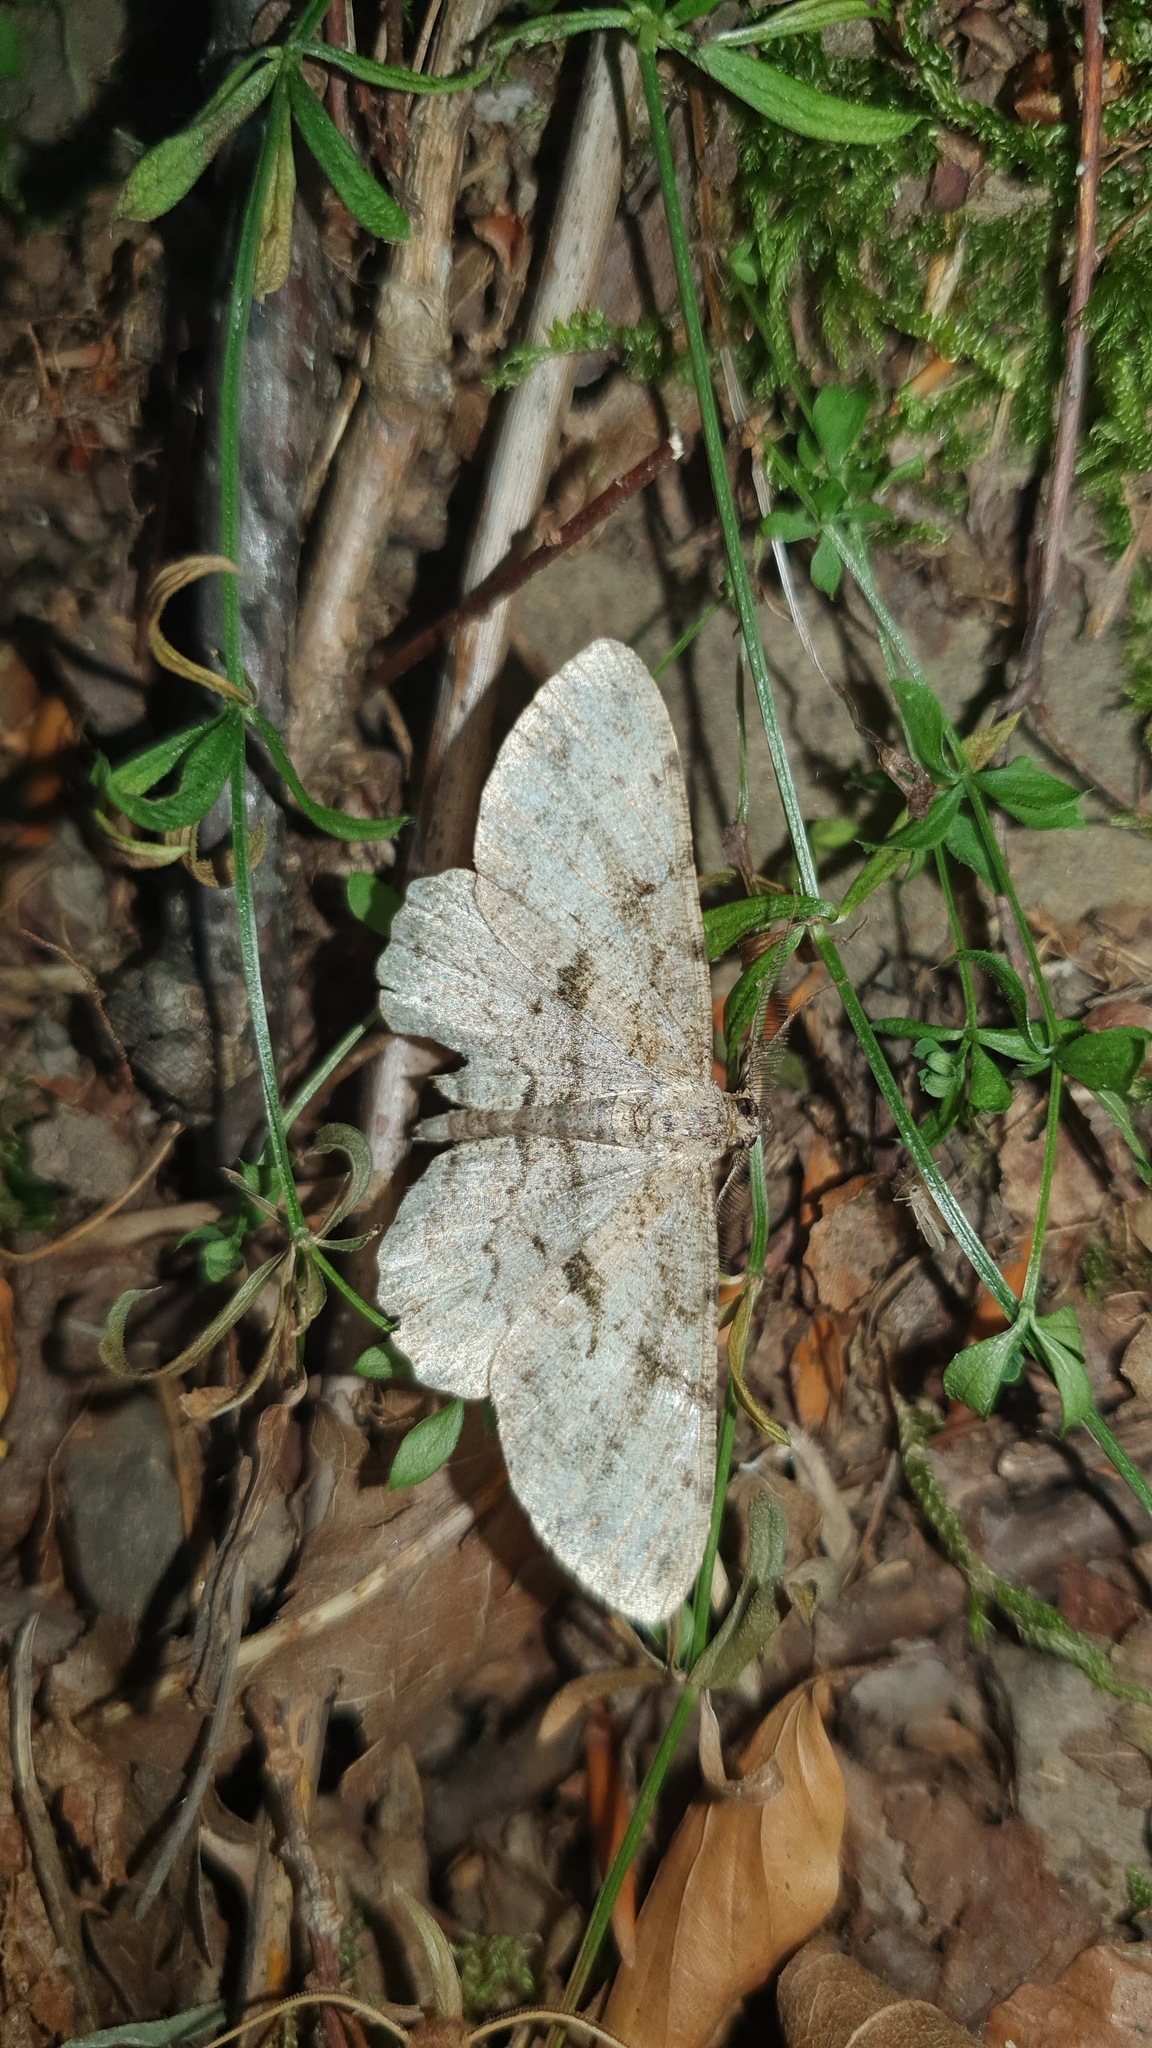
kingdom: Animalia
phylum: Arthropoda
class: Insecta
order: Lepidoptera
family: Geometridae
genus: Peribatodes
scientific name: Peribatodes rhomboidaria
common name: Willow beauty
